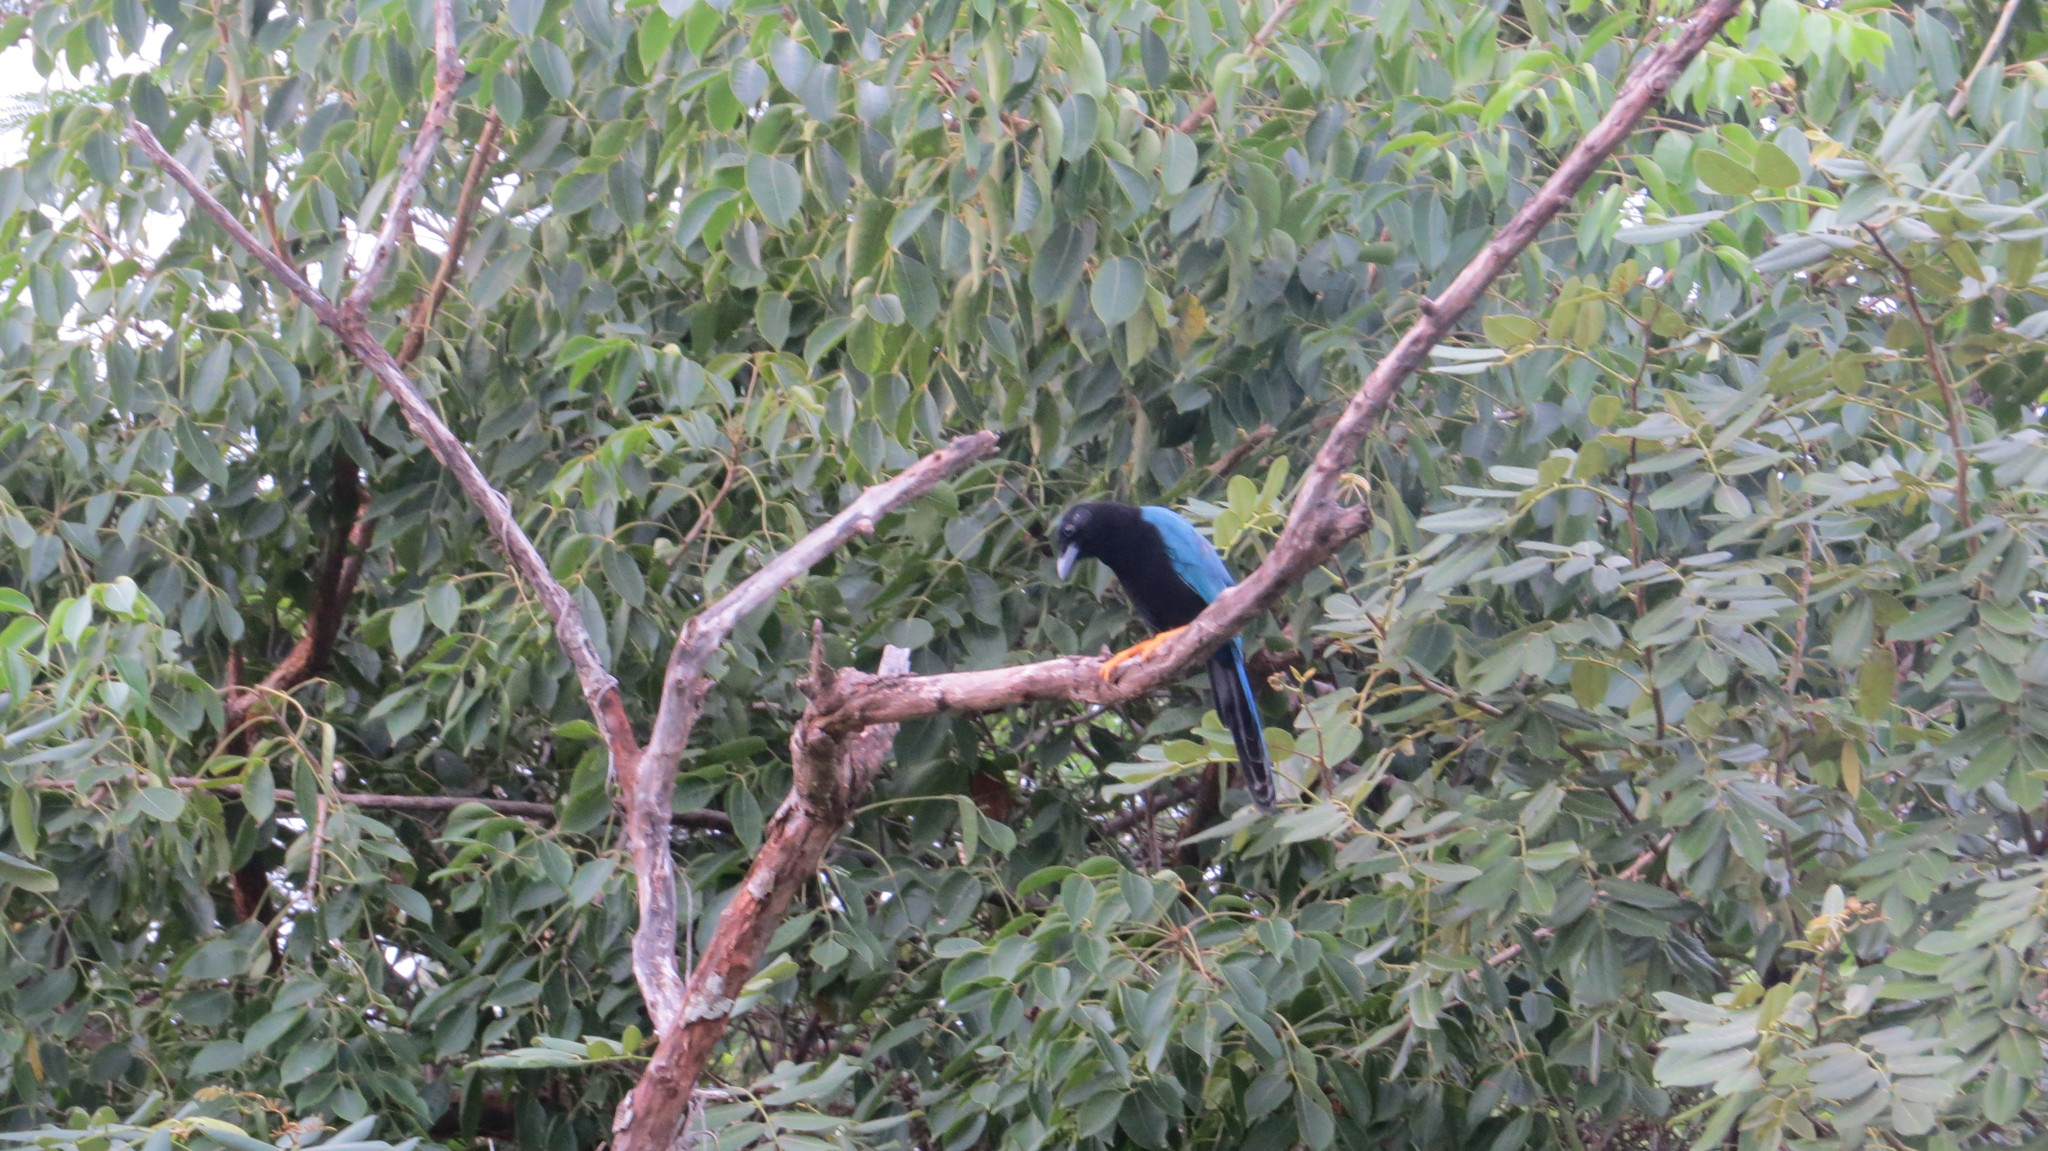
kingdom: Animalia
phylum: Chordata
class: Aves
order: Passeriformes
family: Corvidae
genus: Cyanocorax
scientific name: Cyanocorax yucatanicus
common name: Yucatan jay
